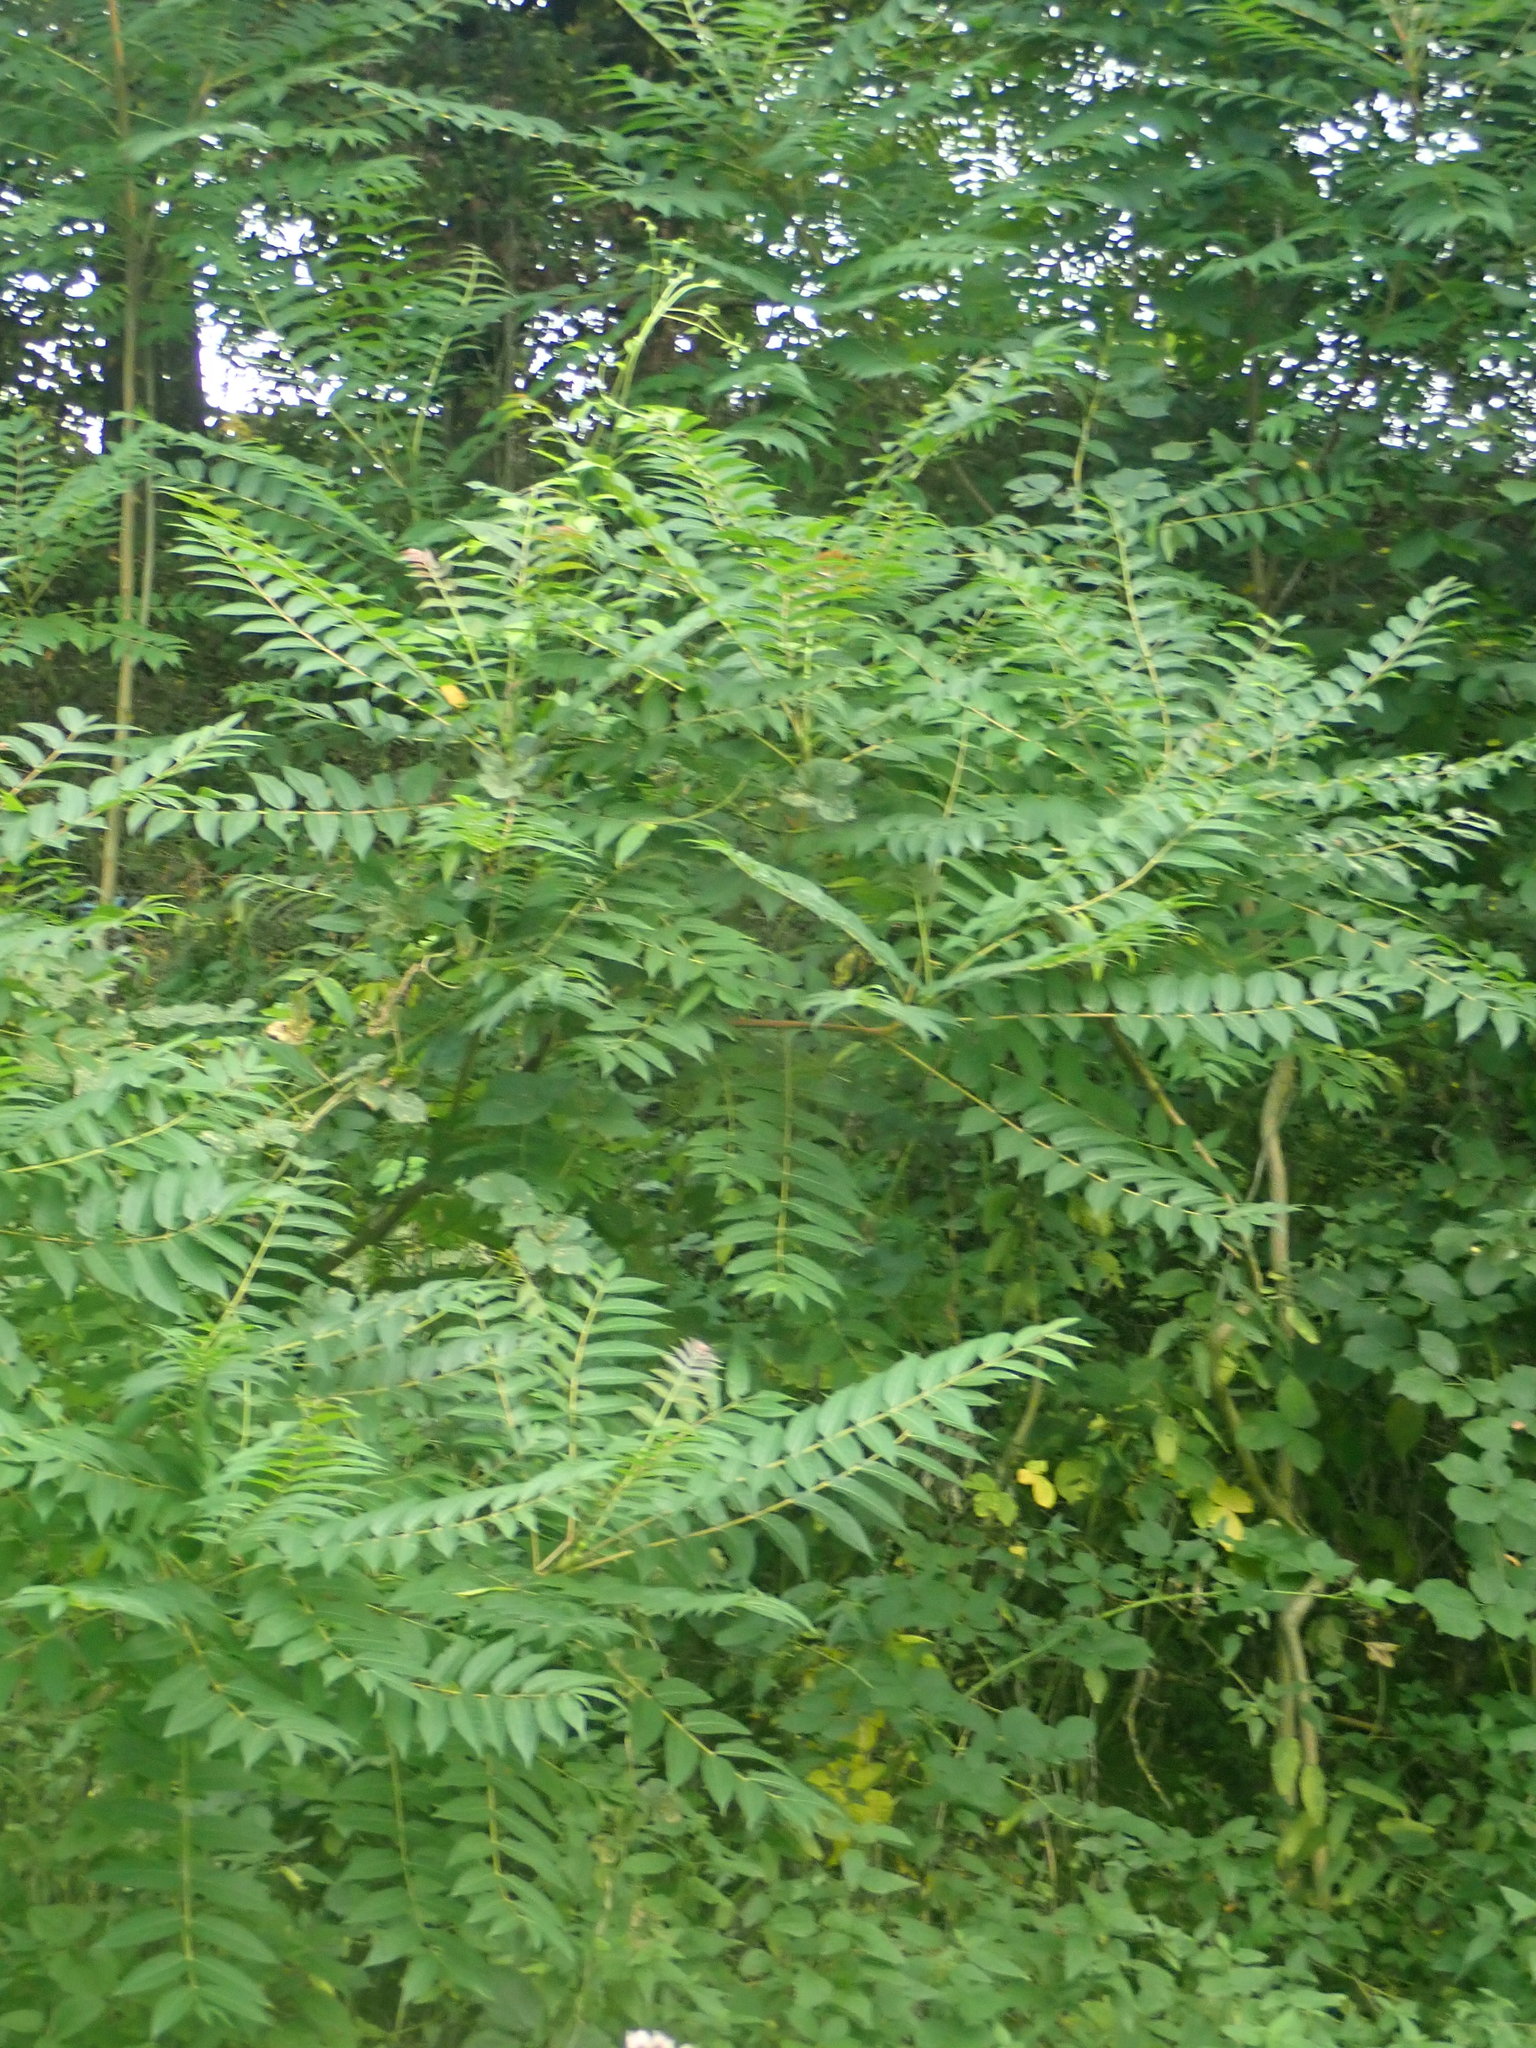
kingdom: Plantae
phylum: Tracheophyta
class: Magnoliopsida
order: Sapindales
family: Simaroubaceae
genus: Ailanthus
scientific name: Ailanthus altissima
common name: Tree-of-heaven
